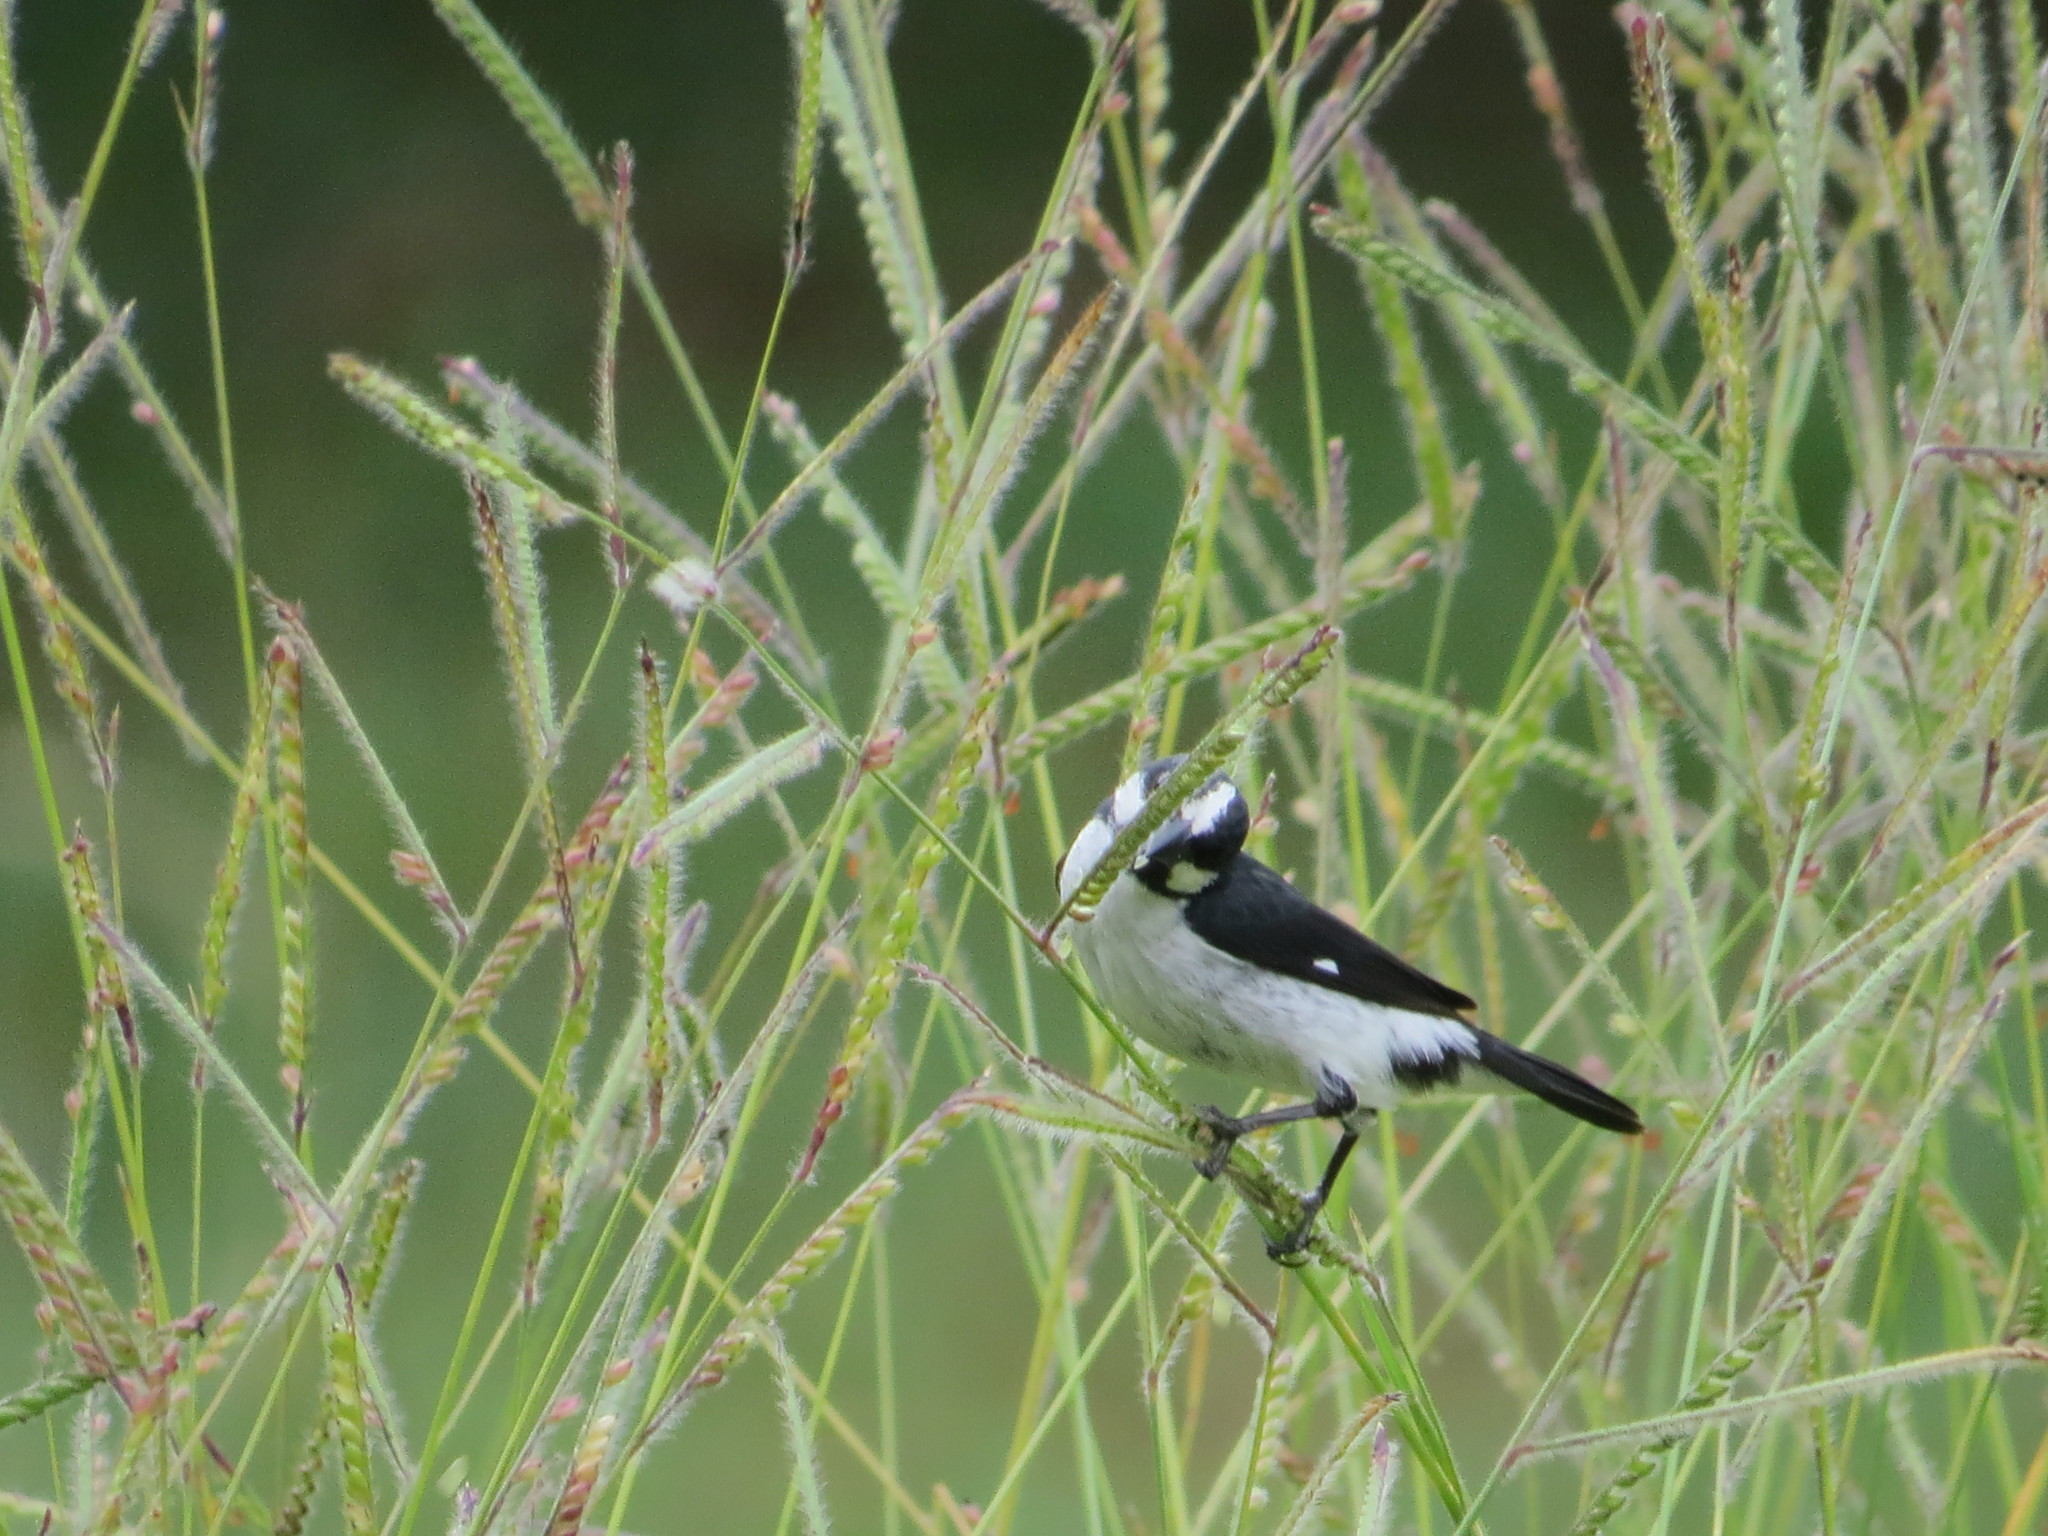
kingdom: Animalia
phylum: Chordata
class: Aves
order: Passeriformes
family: Thraupidae
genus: Sporophila
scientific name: Sporophila lineola
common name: Lined seedeater
